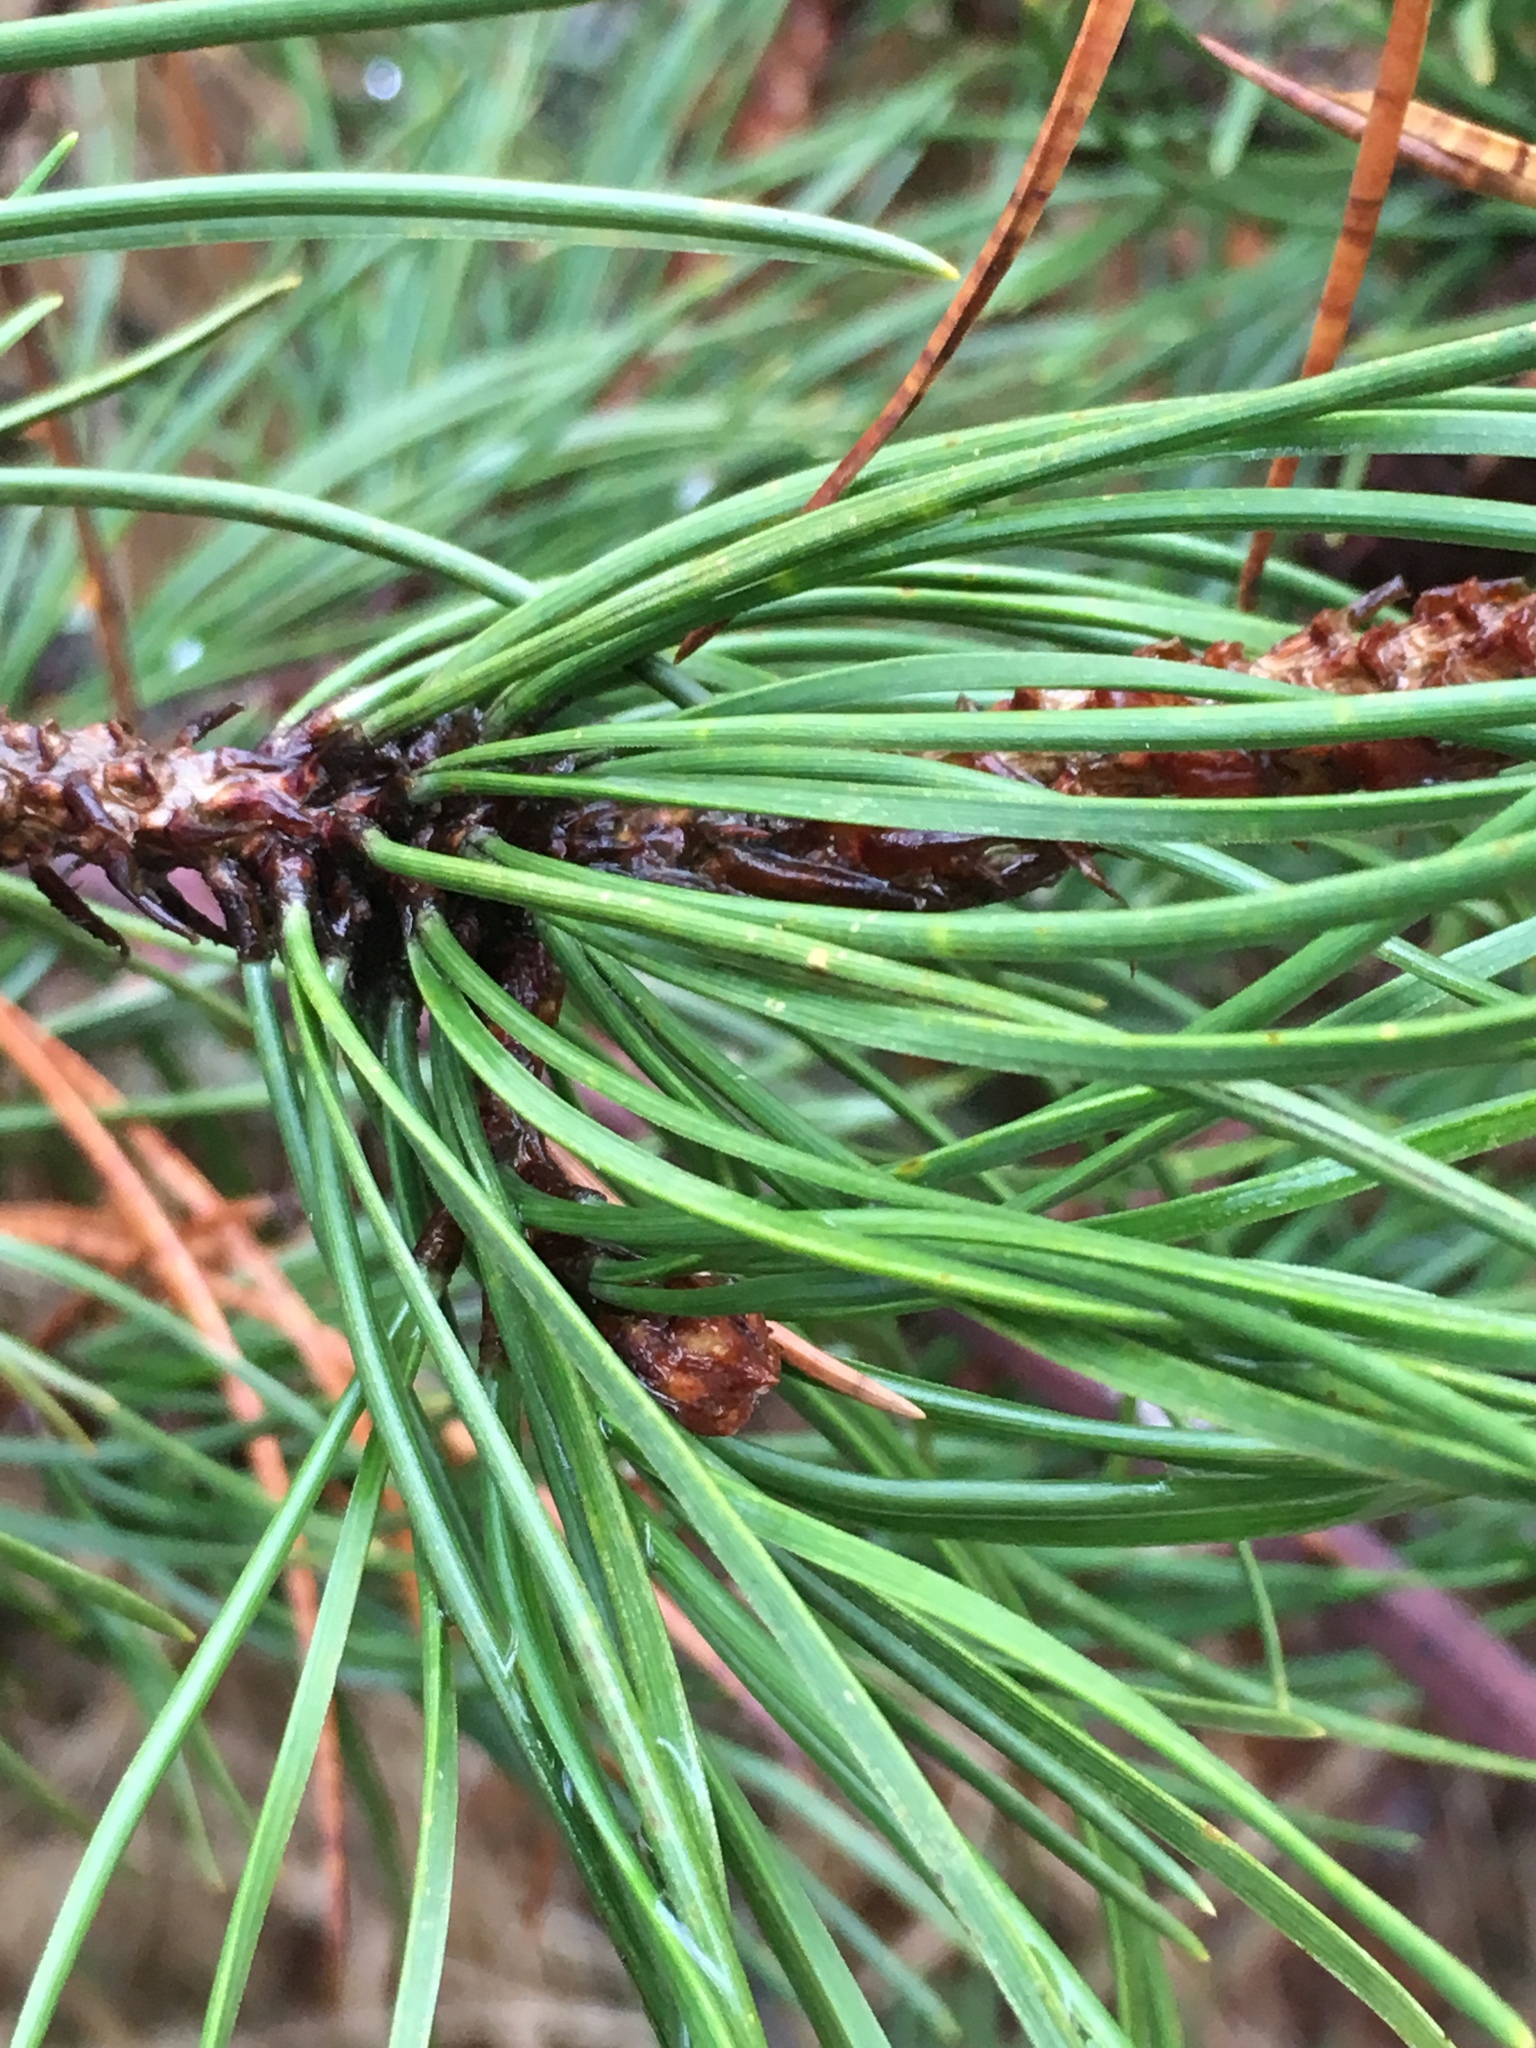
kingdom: Plantae
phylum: Tracheophyta
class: Pinopsida
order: Pinales
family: Pinaceae
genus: Pinus
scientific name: Pinus contorta
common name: Lodgepole pine
